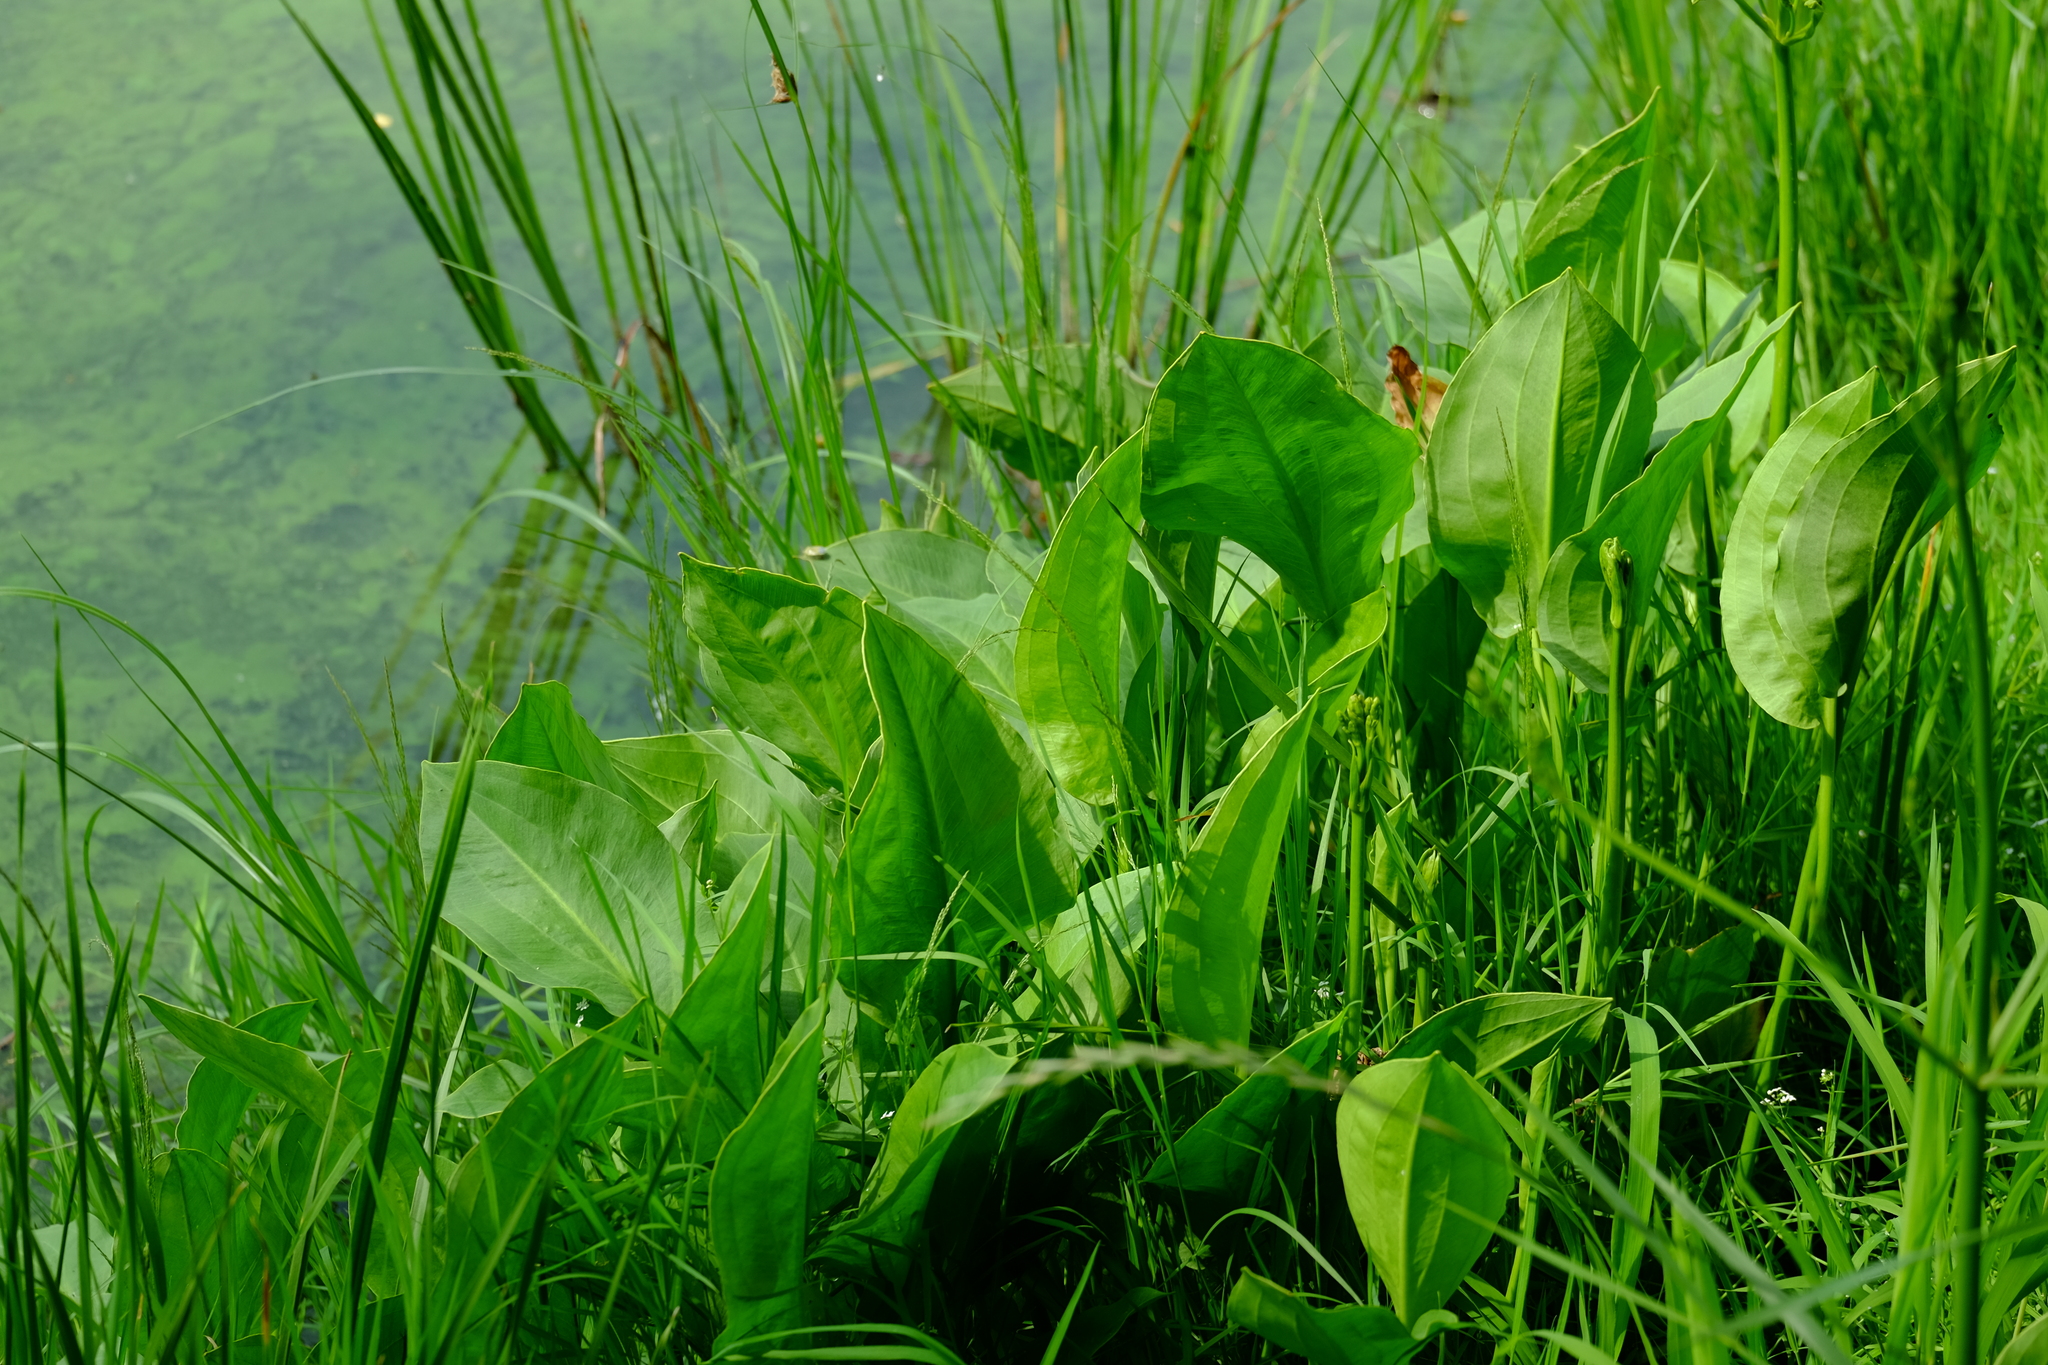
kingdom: Plantae
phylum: Tracheophyta
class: Liliopsida
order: Alismatales
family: Alismataceae
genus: Alisma
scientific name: Alisma plantago-aquatica
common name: Water-plantain
